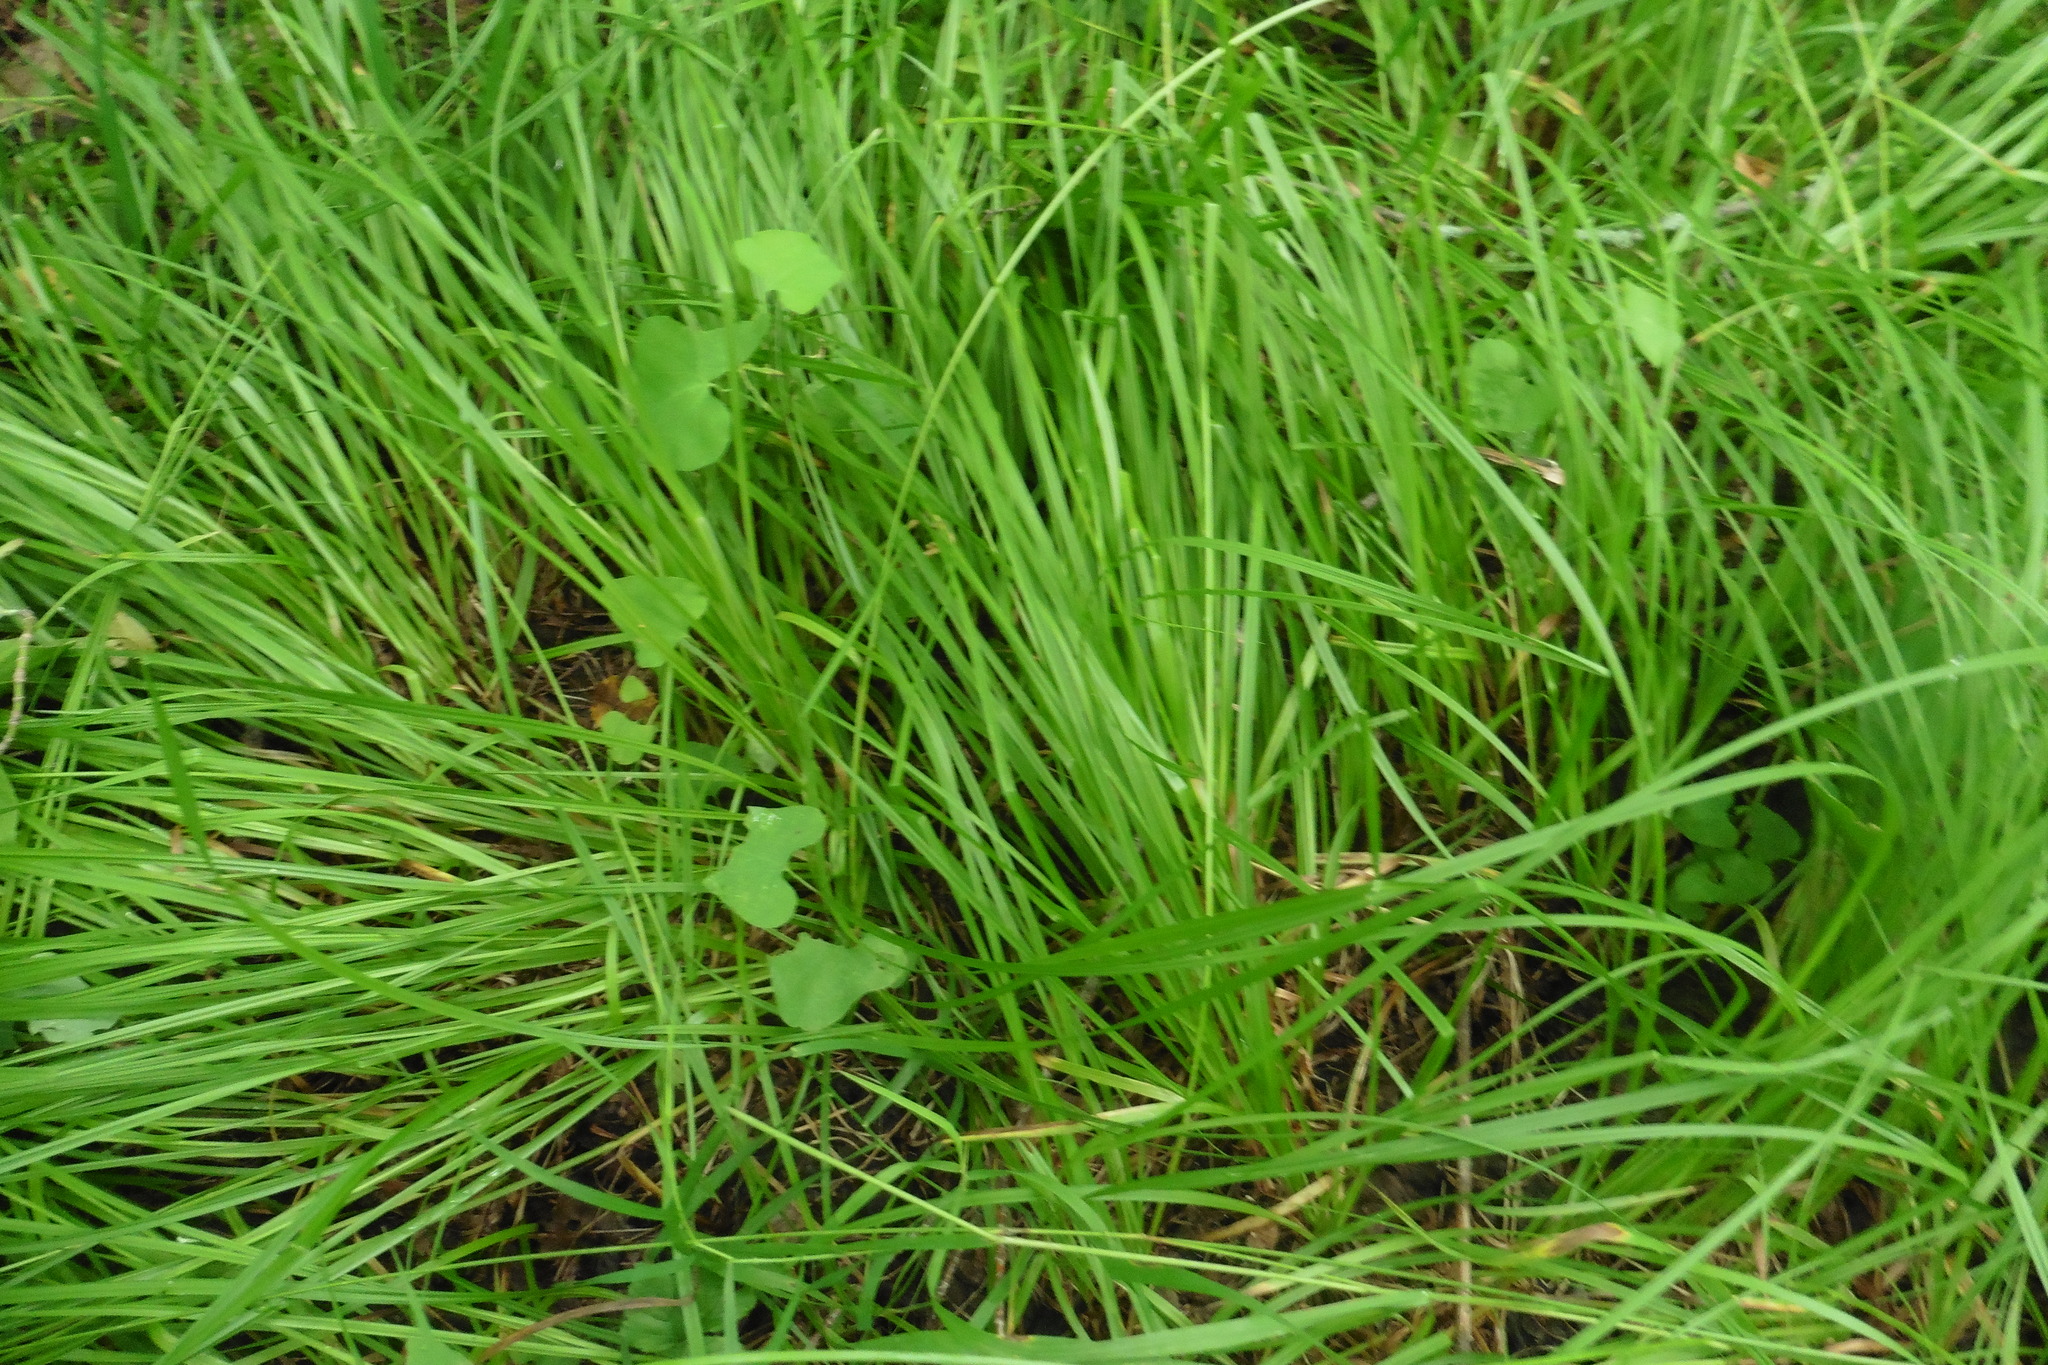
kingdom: Plantae
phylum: Tracheophyta
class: Liliopsida
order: Poales
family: Cyperaceae
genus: Carex
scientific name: Carex arnellii
